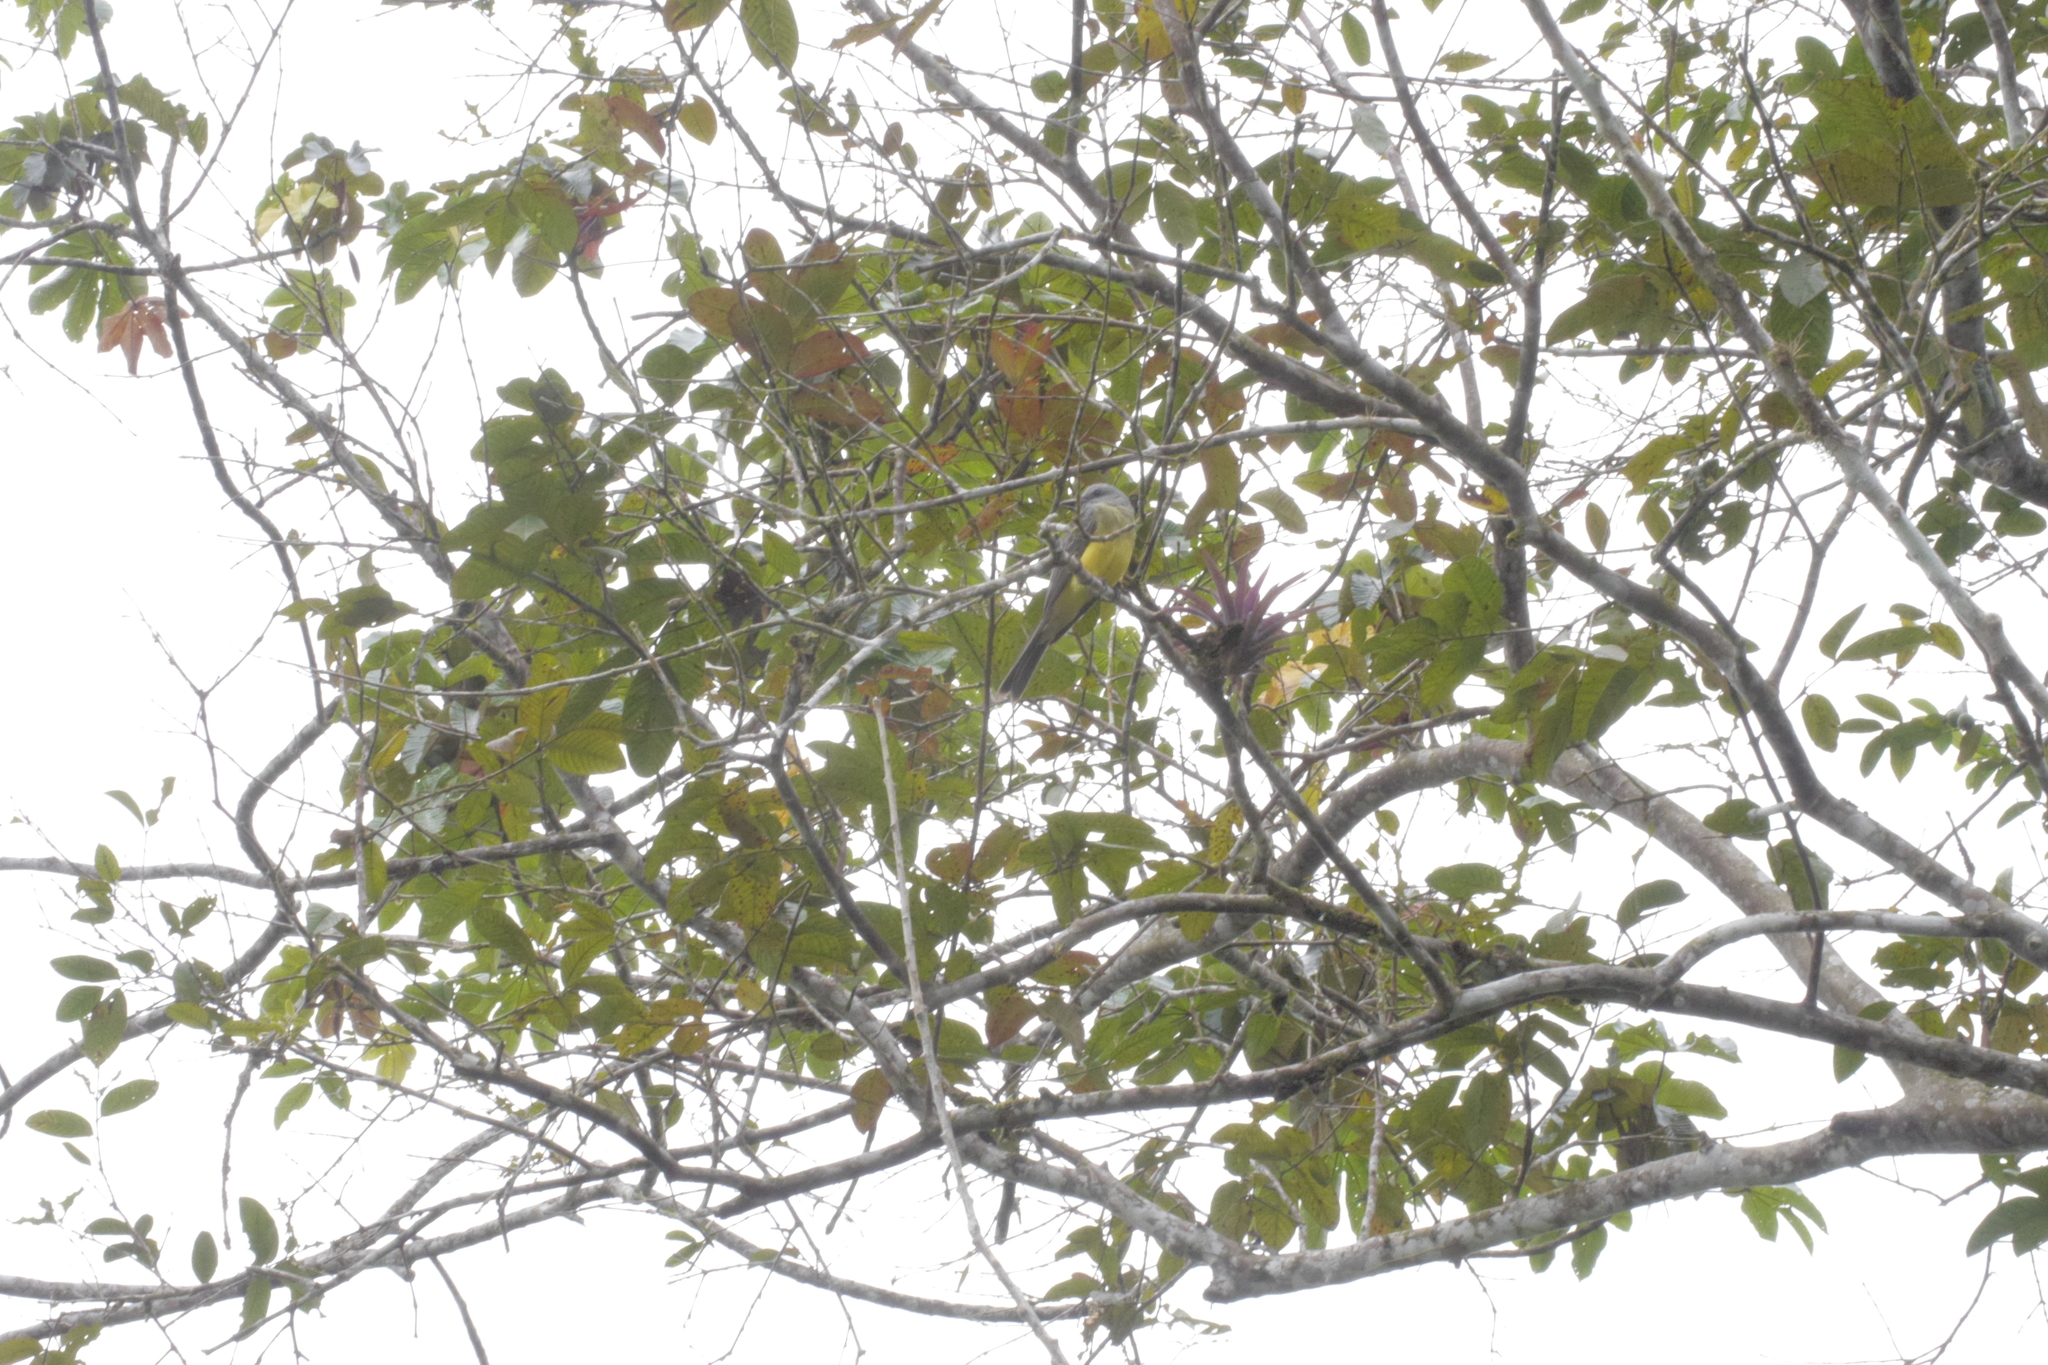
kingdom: Animalia
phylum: Chordata
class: Aves
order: Passeriformes
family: Tyrannidae
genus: Tyrannus
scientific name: Tyrannus melancholicus
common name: Tropical kingbird
